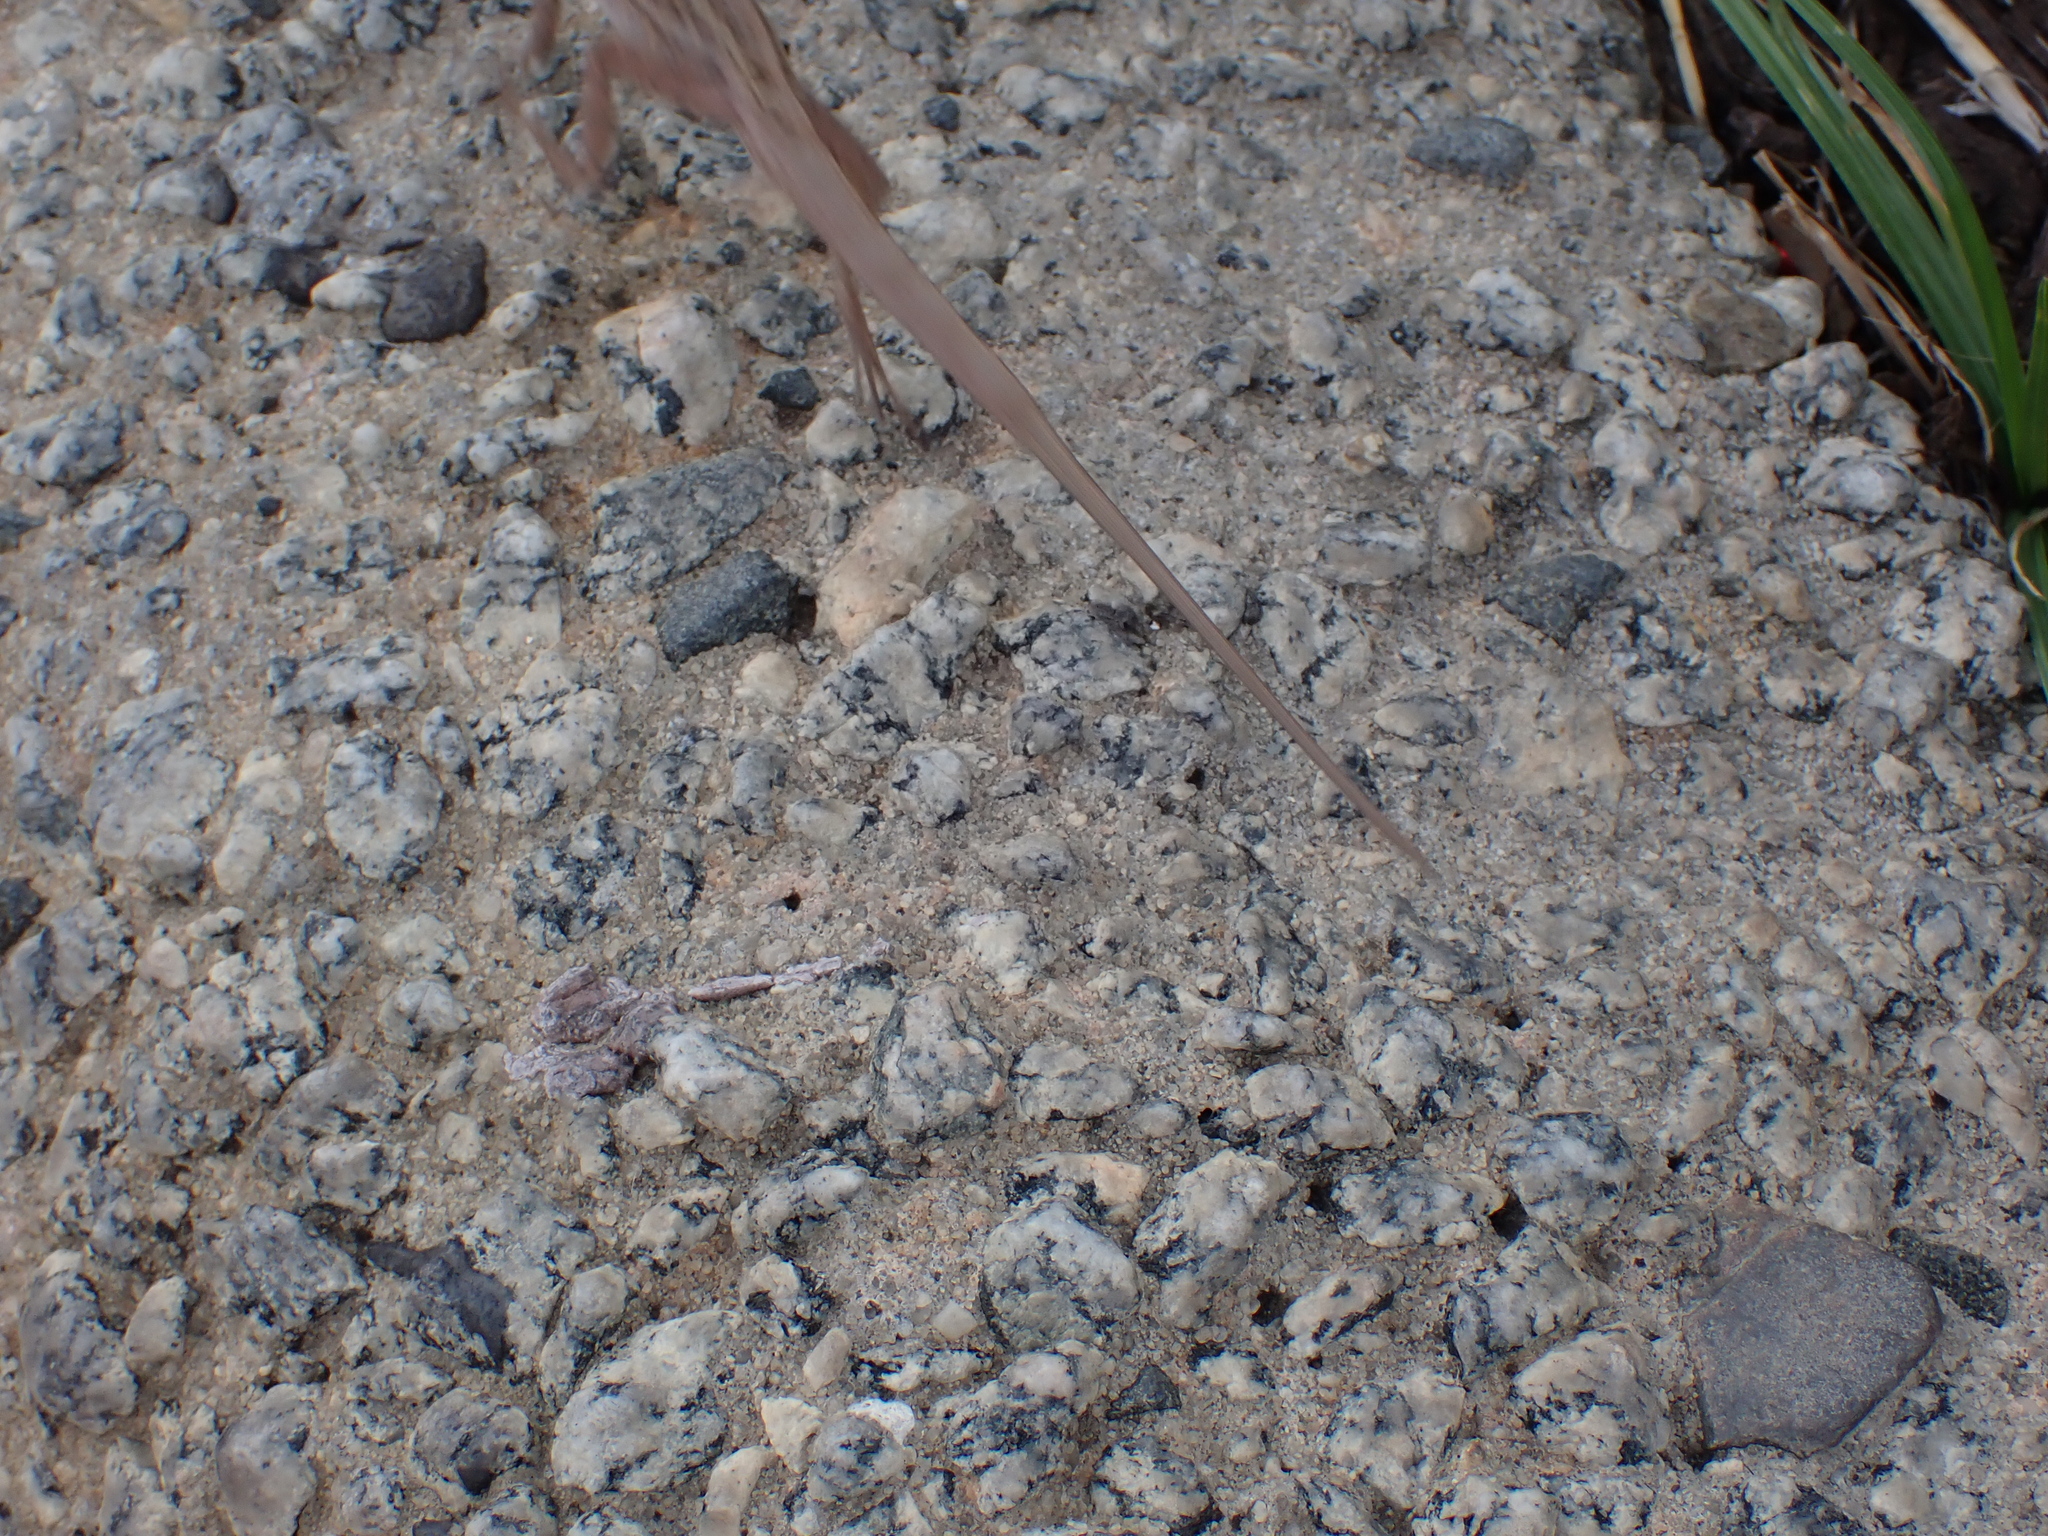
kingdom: Animalia
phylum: Chordata
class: Squamata
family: Dactyloidae
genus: Anolis
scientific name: Anolis sagrei
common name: Brown anole
